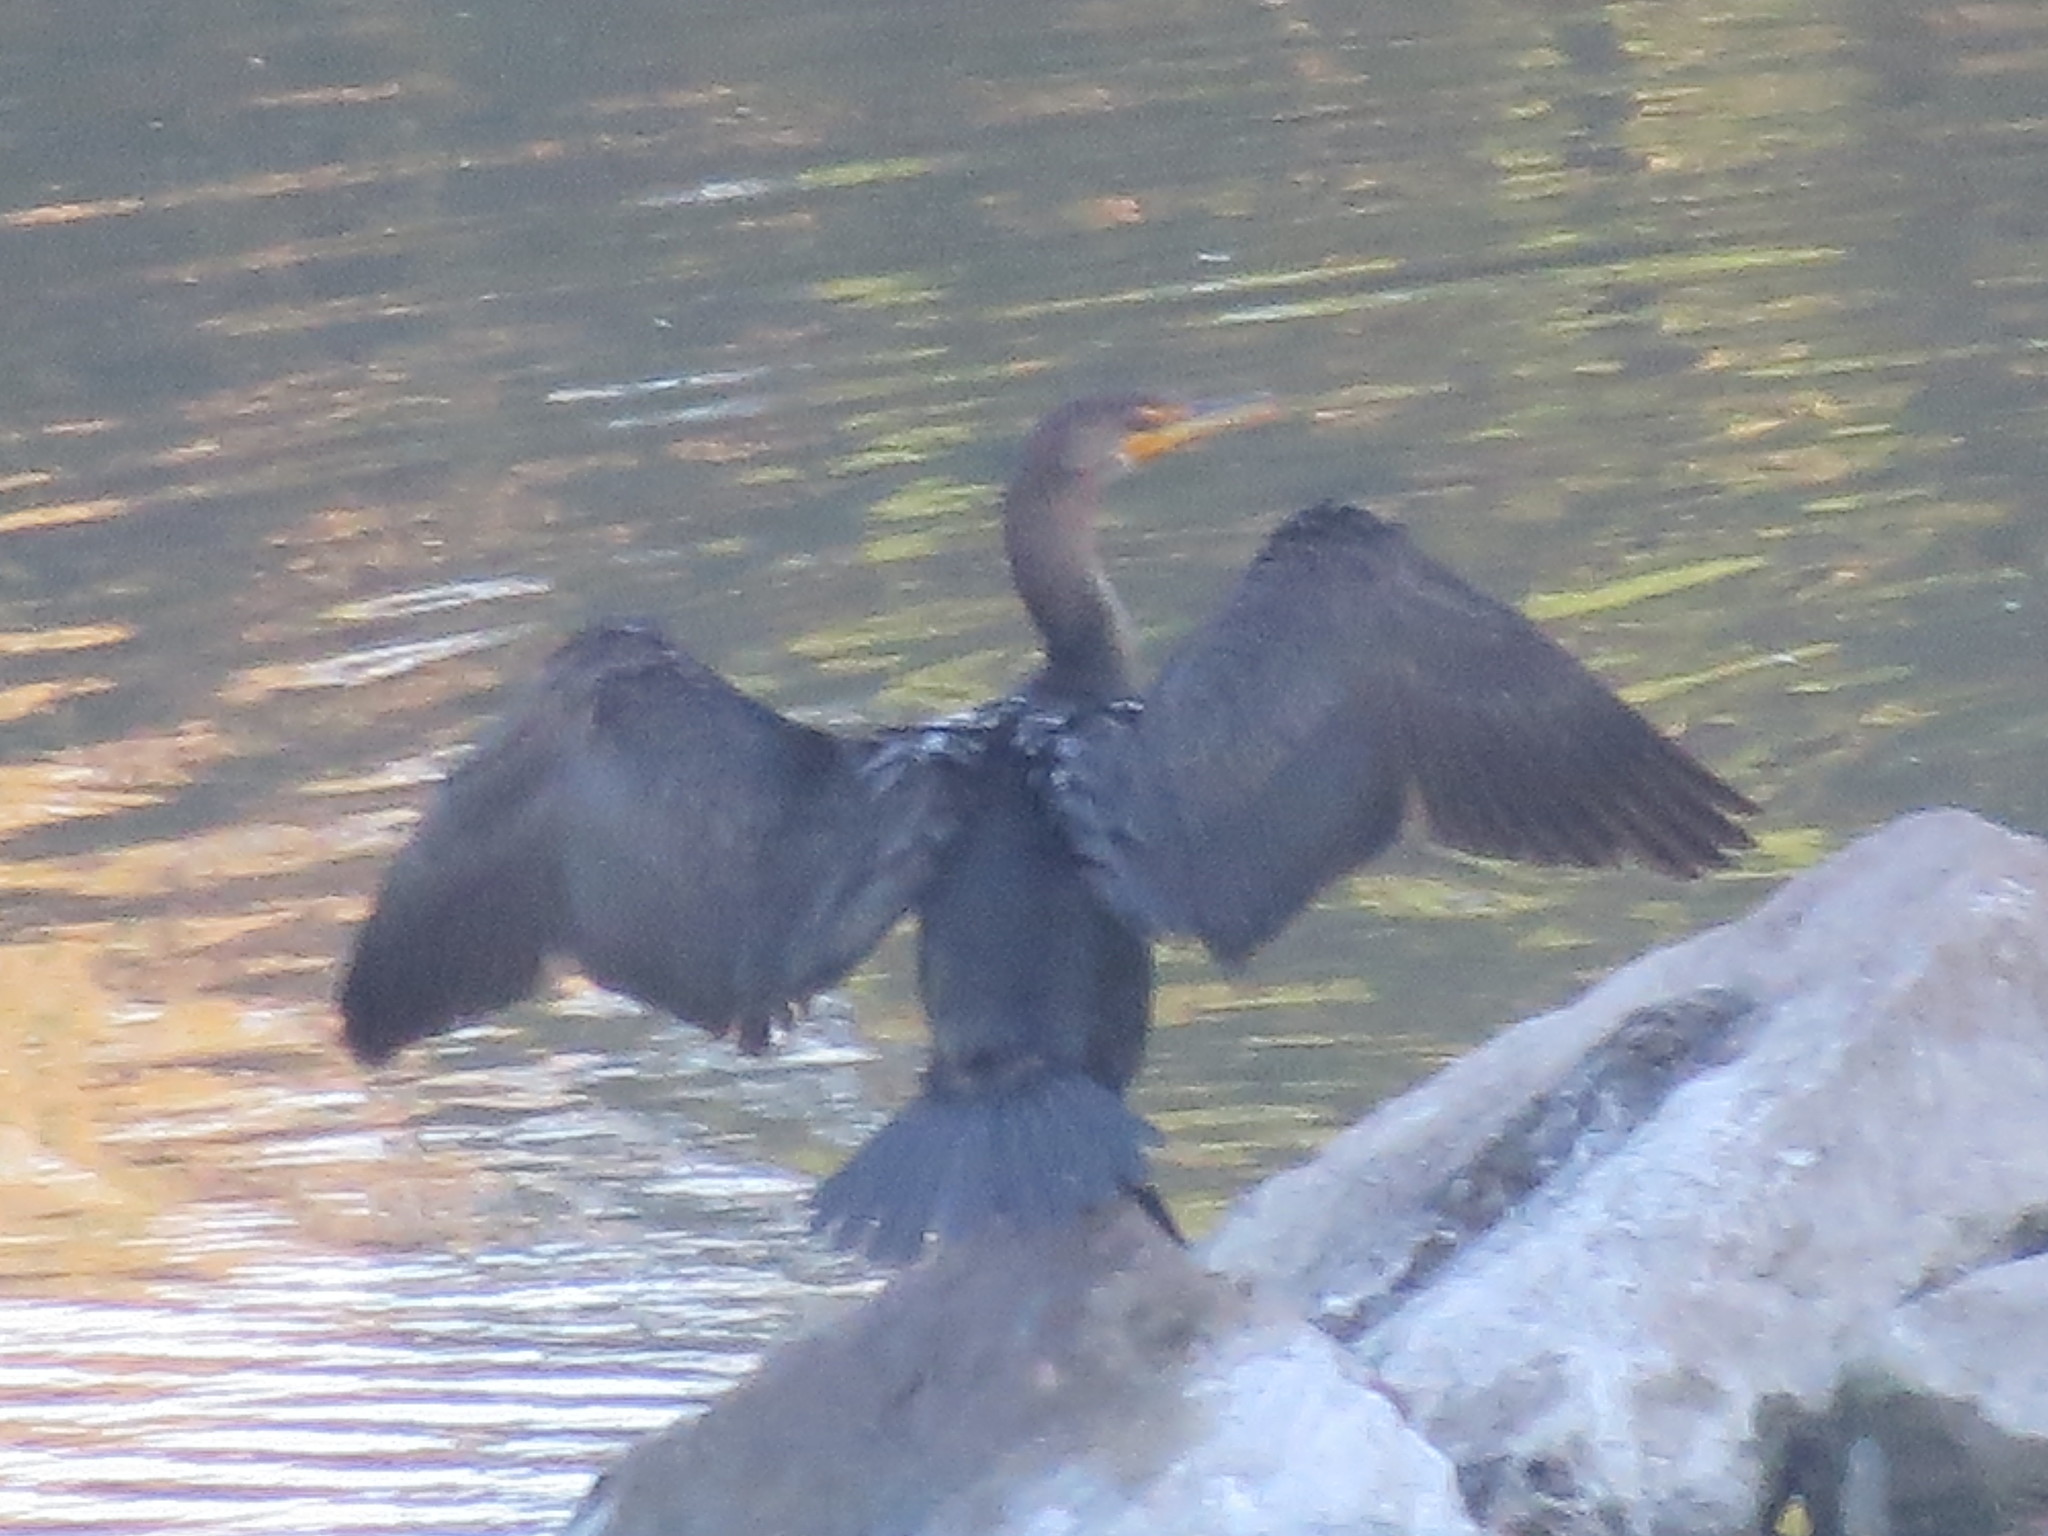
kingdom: Animalia
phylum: Chordata
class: Aves
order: Suliformes
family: Phalacrocoracidae
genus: Phalacrocorax
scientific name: Phalacrocorax auritus
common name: Double-crested cormorant
